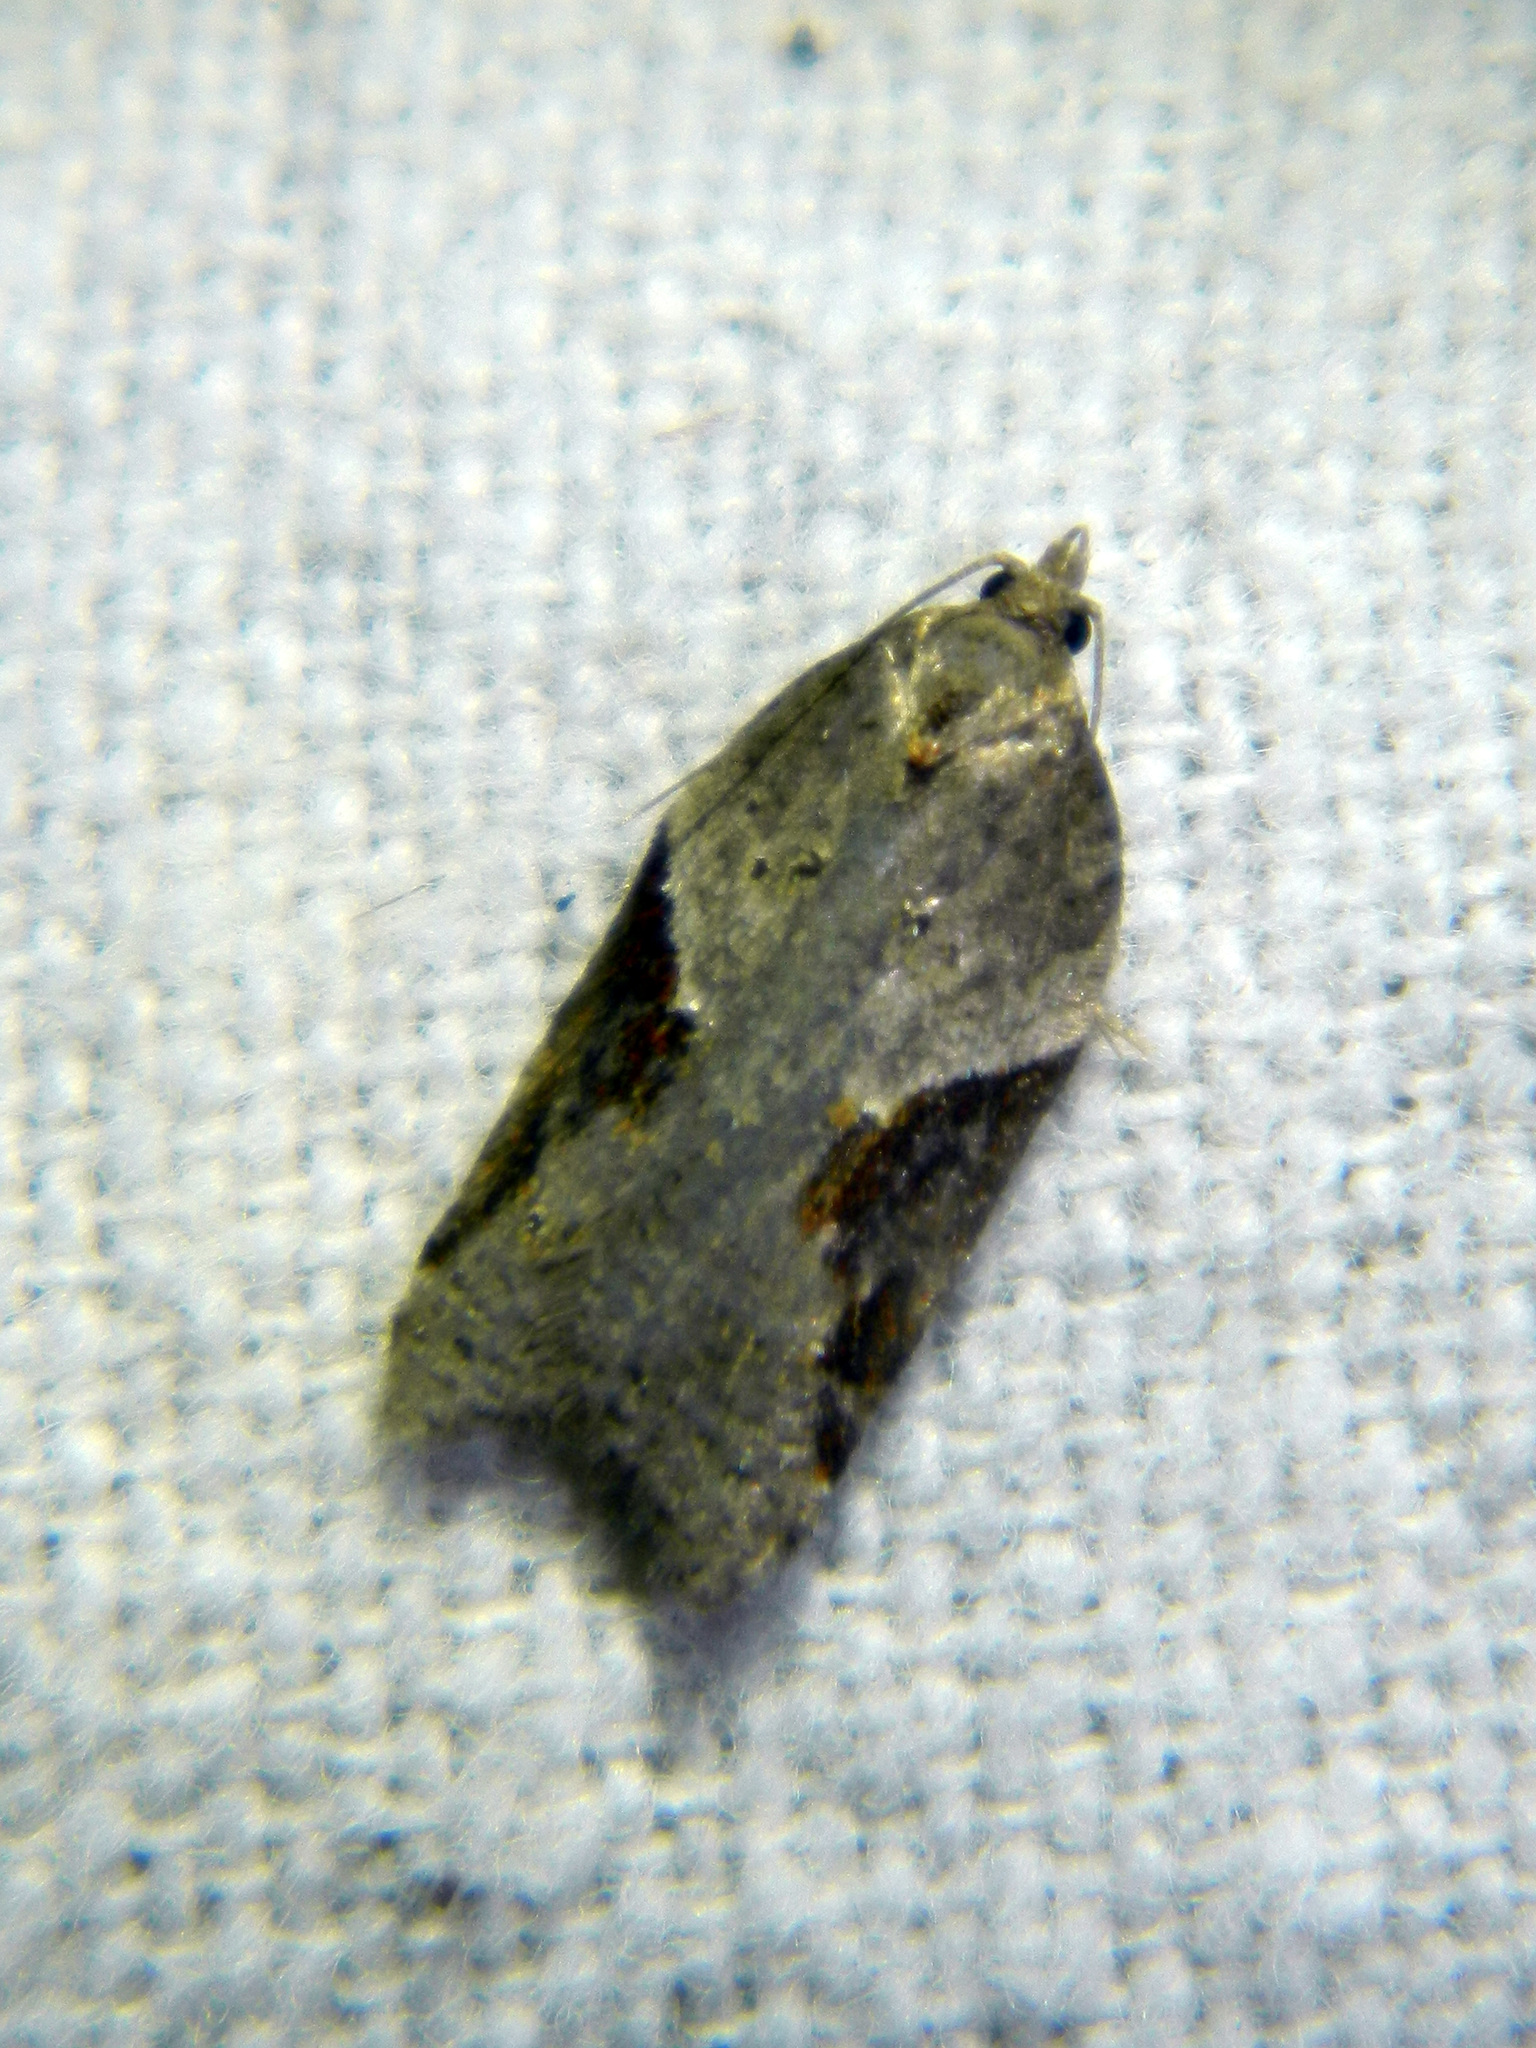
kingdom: Animalia
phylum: Arthropoda
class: Insecta
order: Lepidoptera
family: Tortricidae
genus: Acleris
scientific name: Acleris macdunnoughi
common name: Macdunnough's acleris
